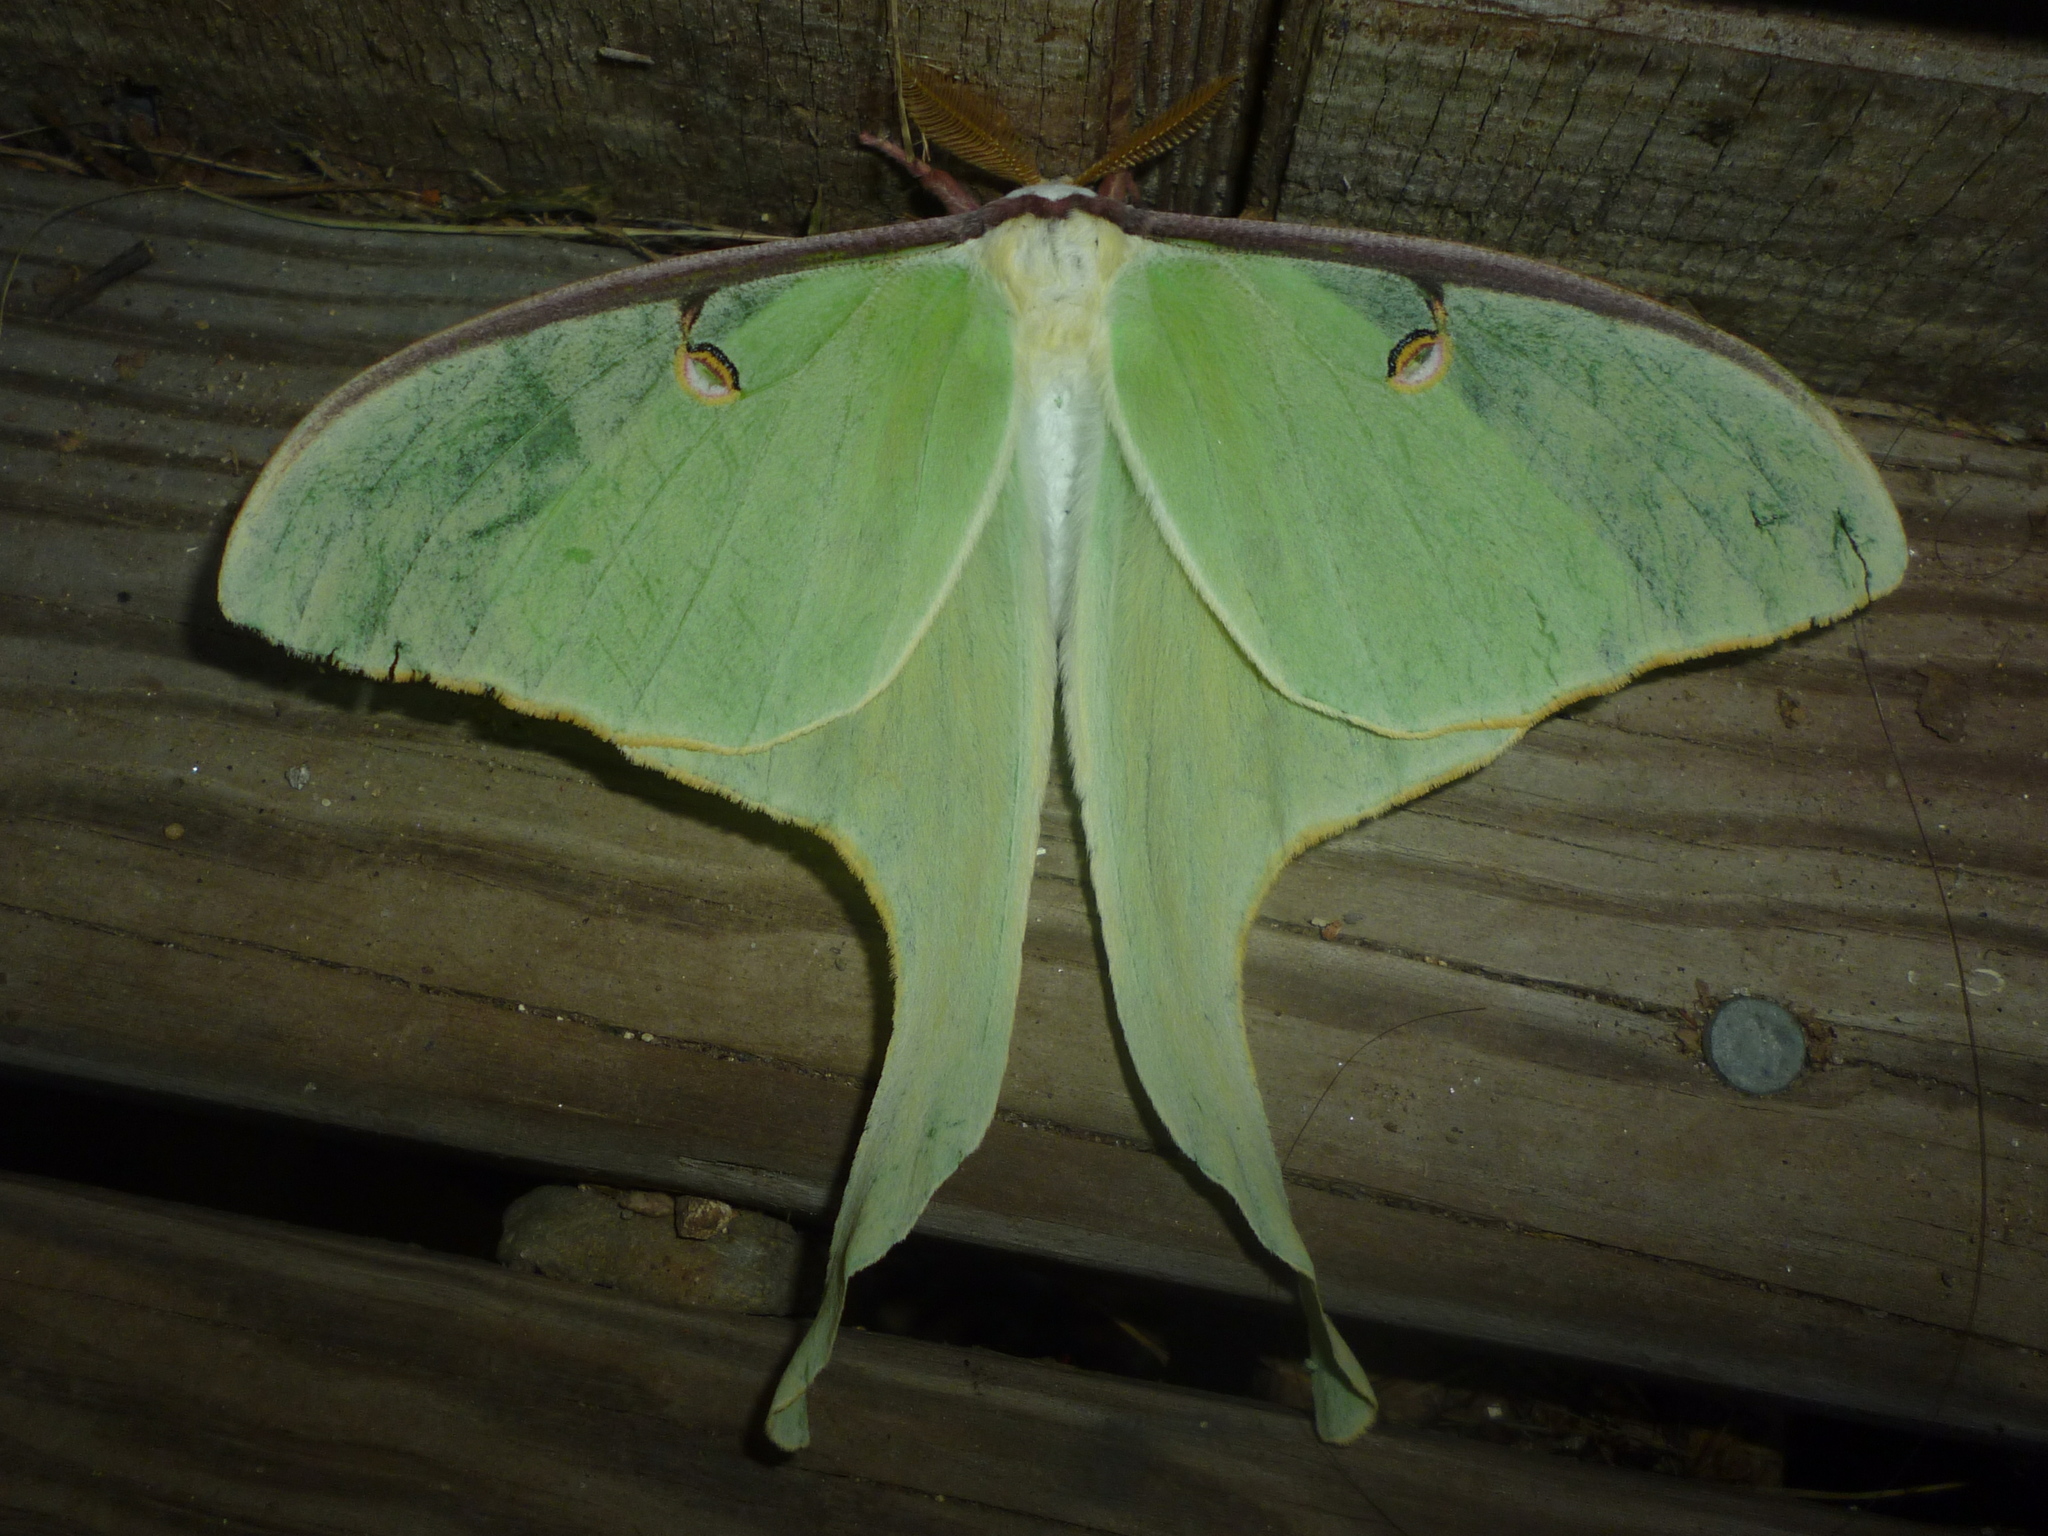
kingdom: Animalia
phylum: Arthropoda
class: Insecta
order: Lepidoptera
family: Saturniidae
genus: Actias
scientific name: Actias luna
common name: Luna moth
